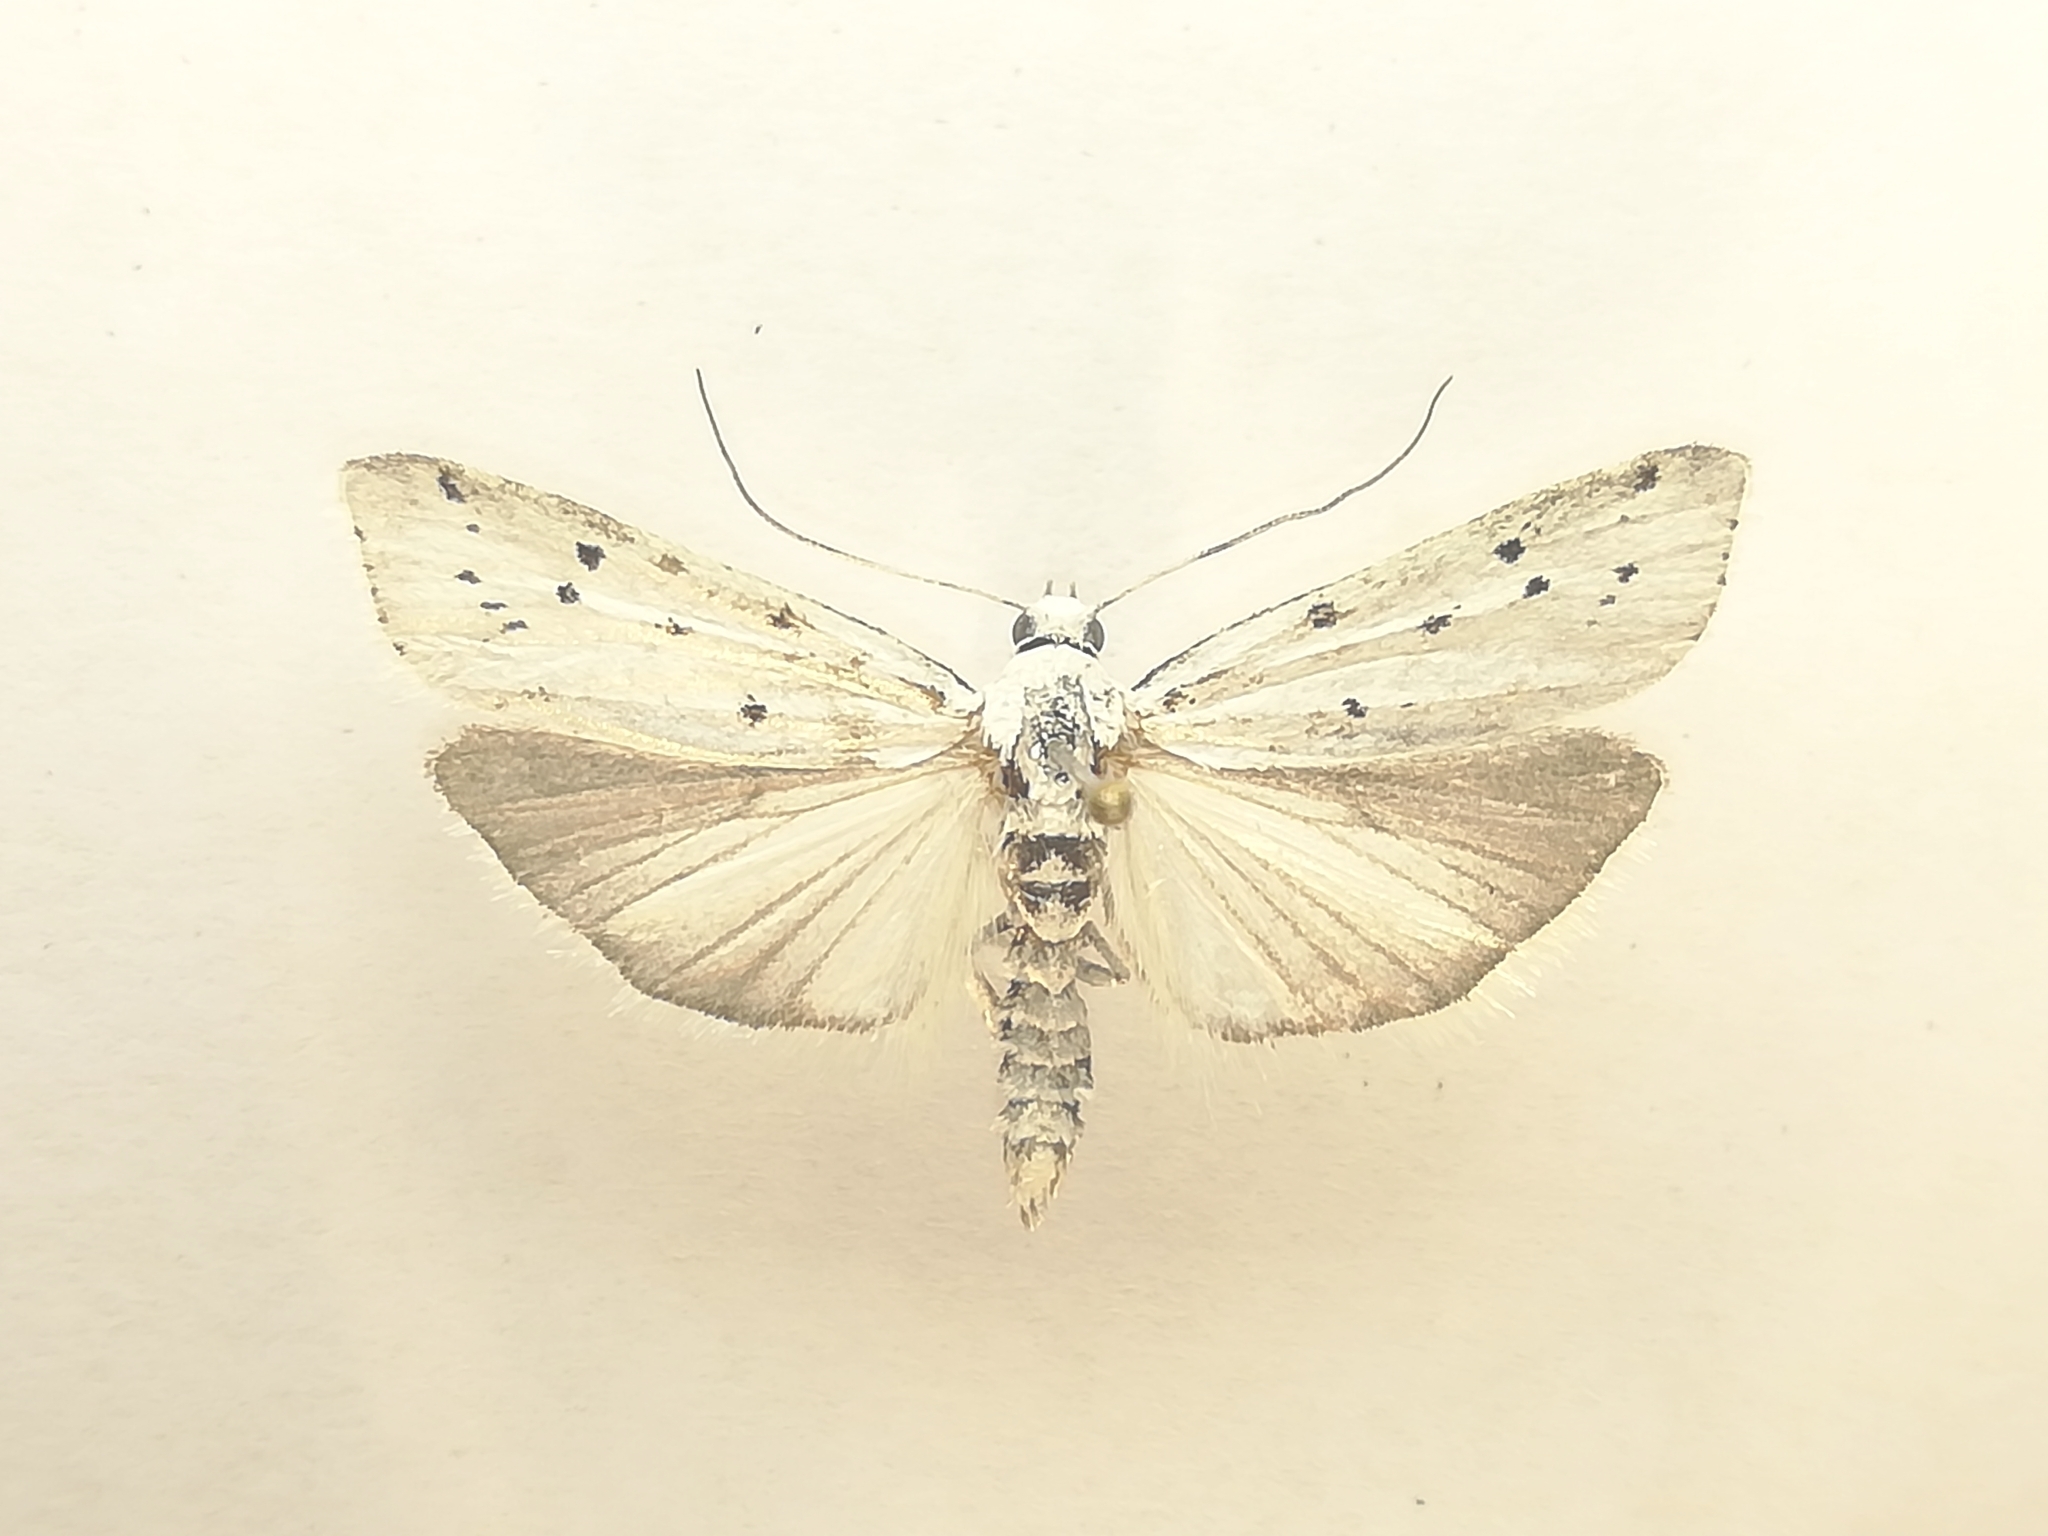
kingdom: Animalia
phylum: Arthropoda
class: Insecta
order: Lepidoptera
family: Pyralidae
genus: Myelois
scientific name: Myelois circumvoluta
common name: Thistle ermine
